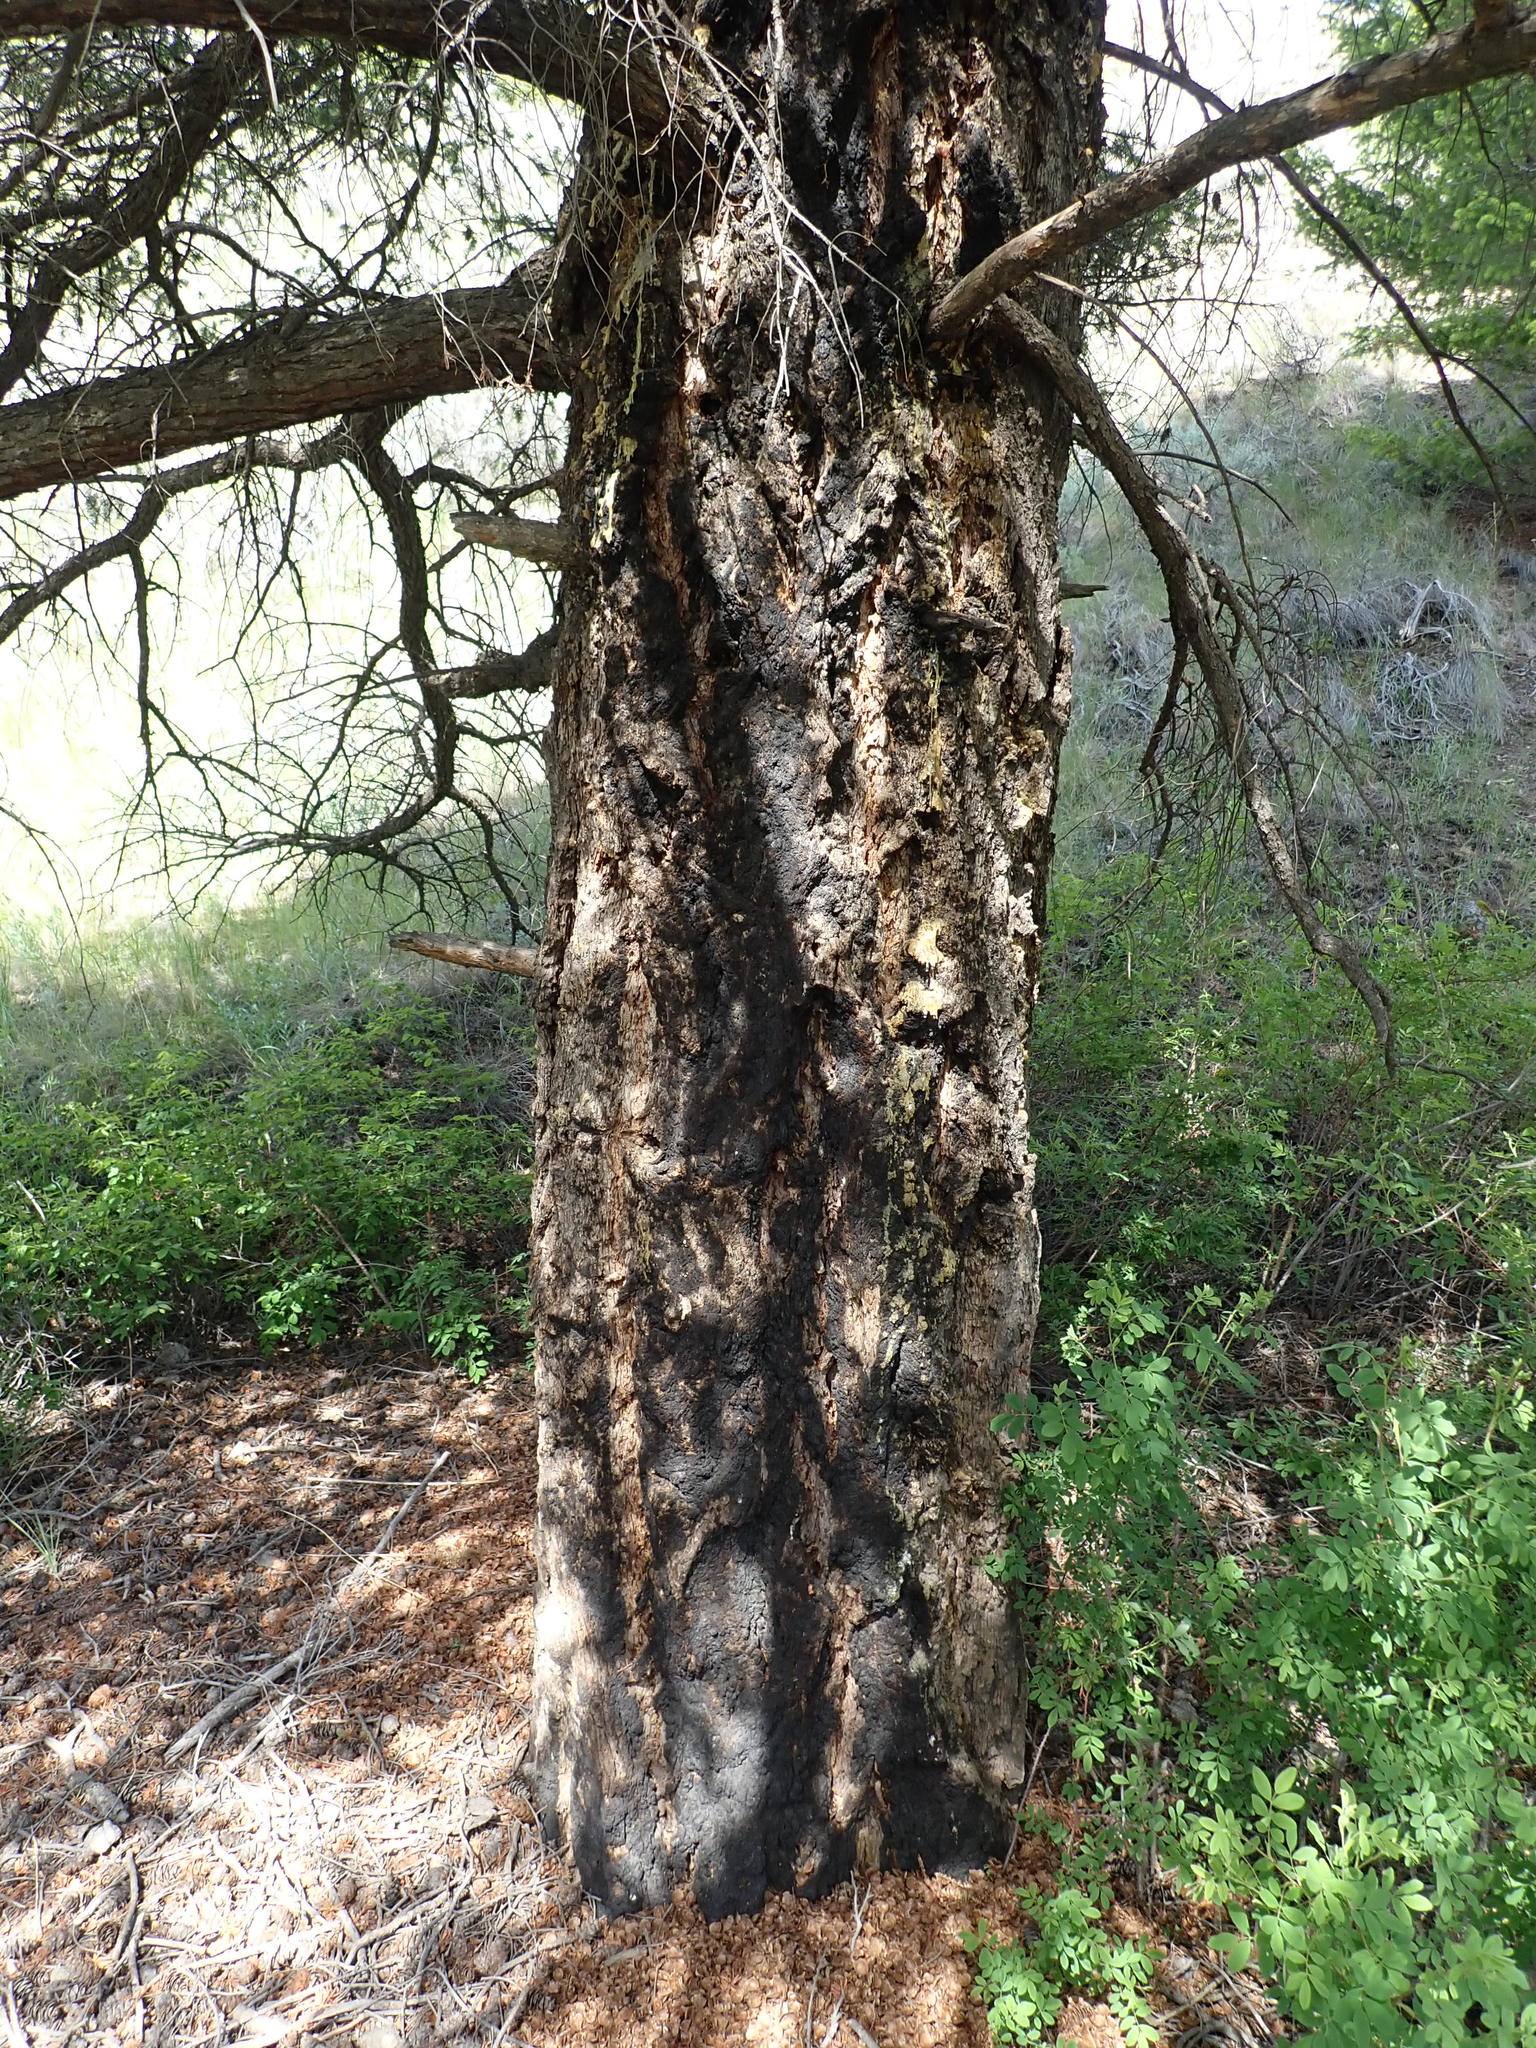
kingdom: Plantae
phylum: Tracheophyta
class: Pinopsida
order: Pinales
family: Pinaceae
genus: Pseudotsuga
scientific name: Pseudotsuga menziesii
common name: Douglas fir
